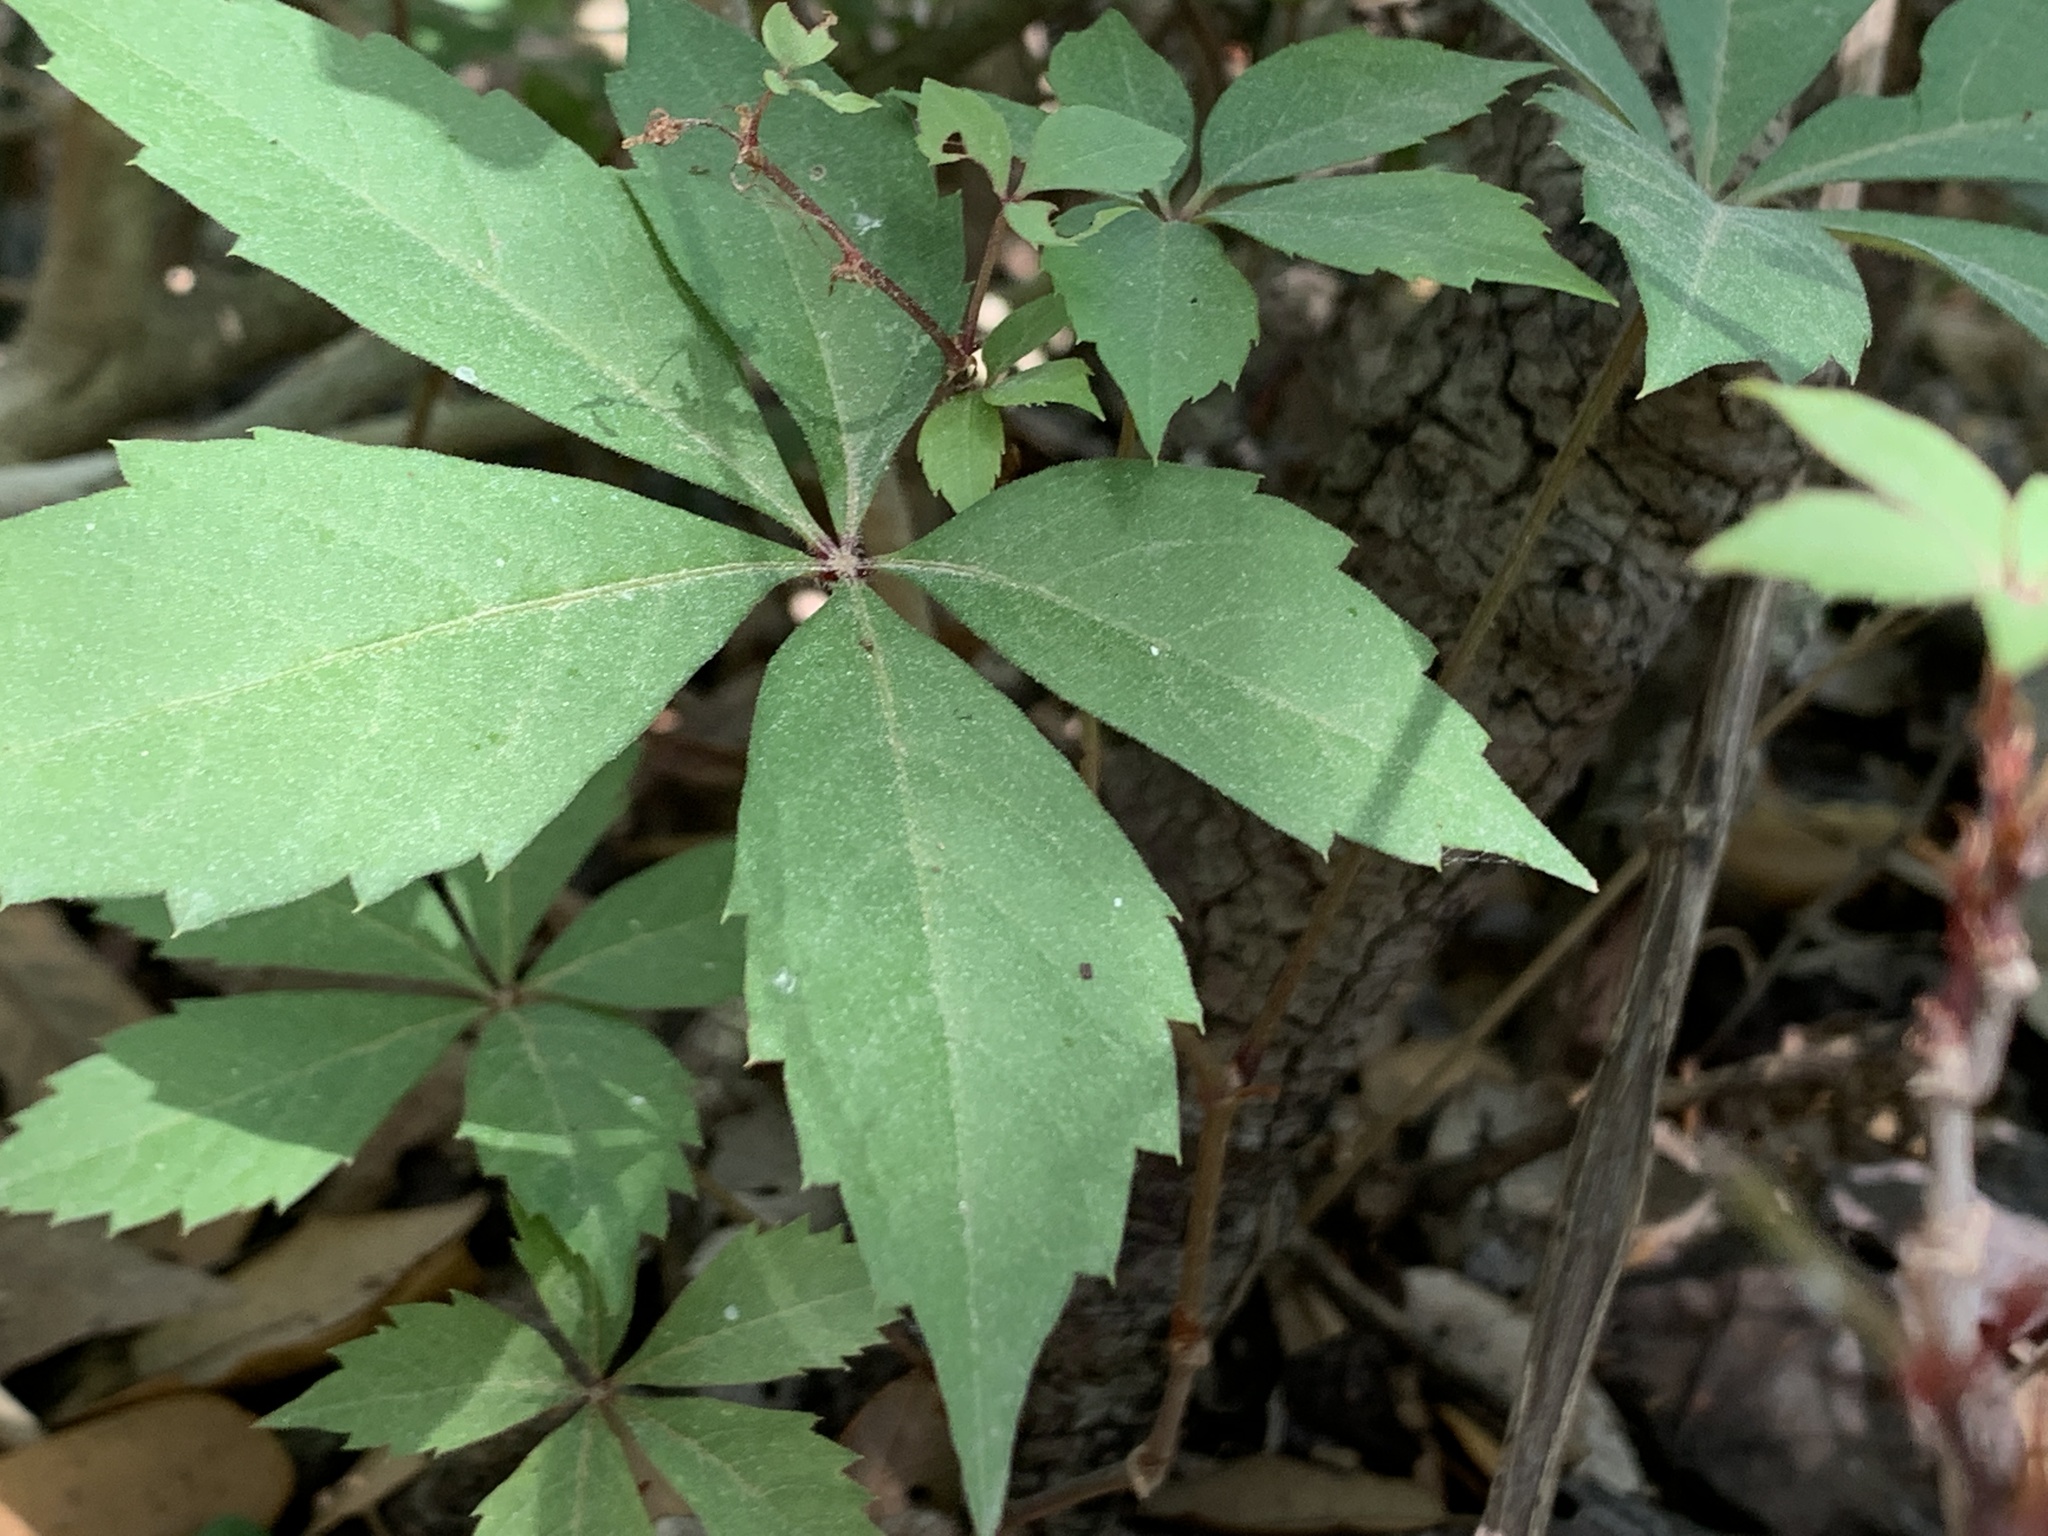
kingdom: Plantae
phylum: Tracheophyta
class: Magnoliopsida
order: Vitales
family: Vitaceae
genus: Parthenocissus
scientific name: Parthenocissus quinquefolia
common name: Virginia-creeper
